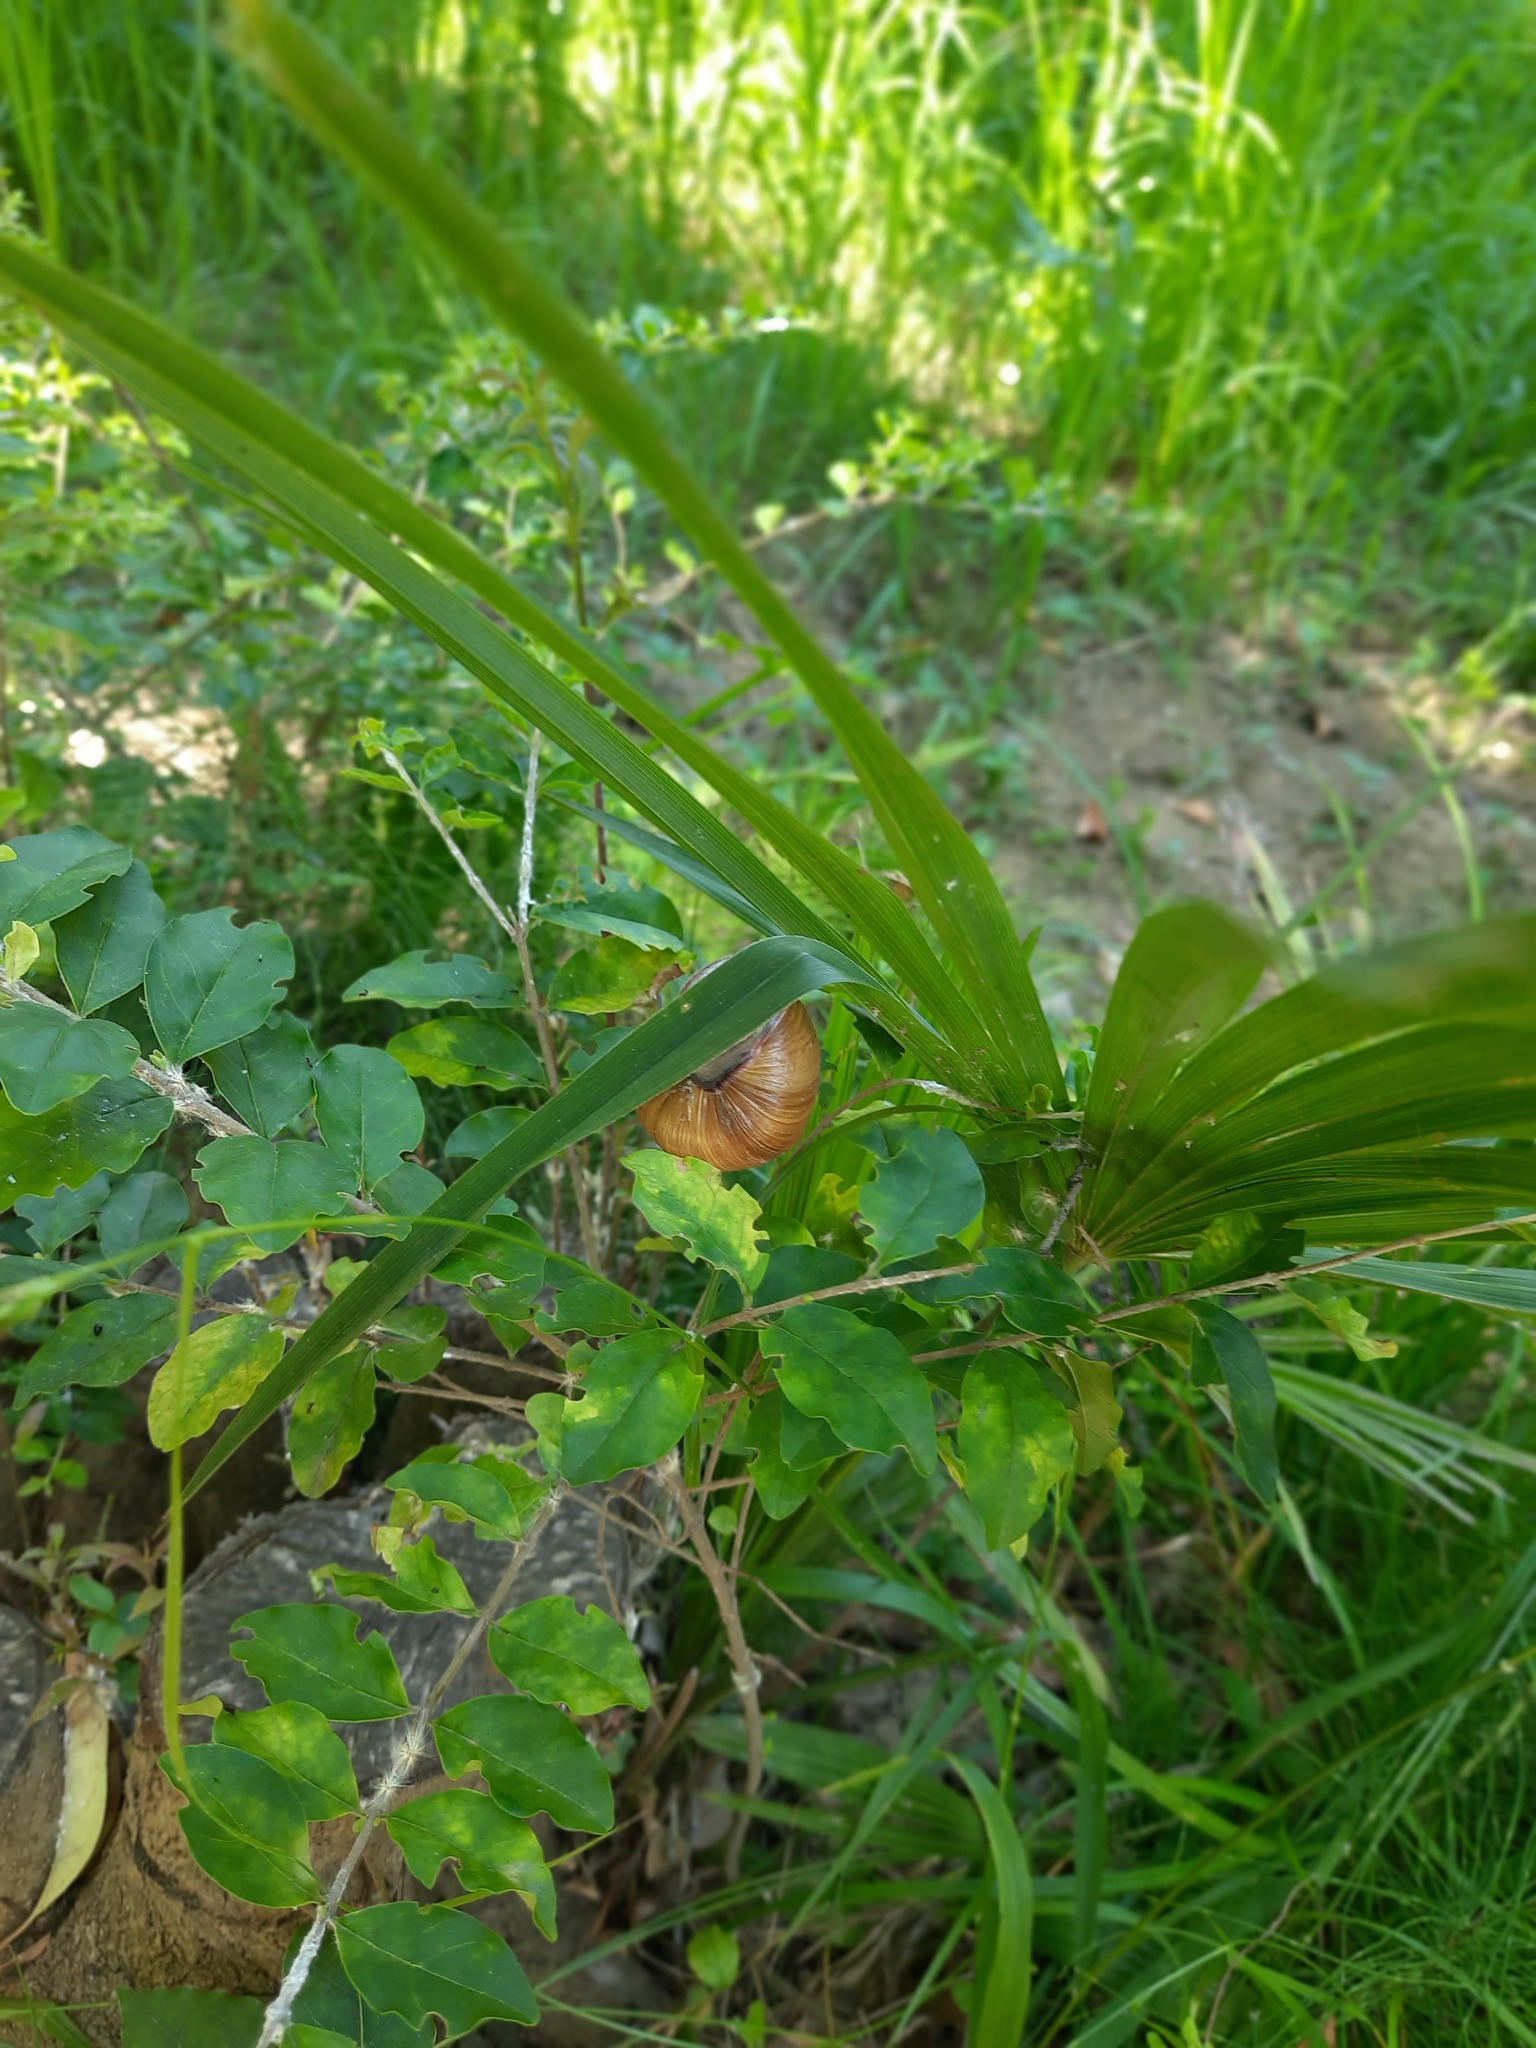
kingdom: Plantae
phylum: Tracheophyta
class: Liliopsida
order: Arecales
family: Arecaceae
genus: Trachycarpus
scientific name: Trachycarpus fortunei
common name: Chusan palm
